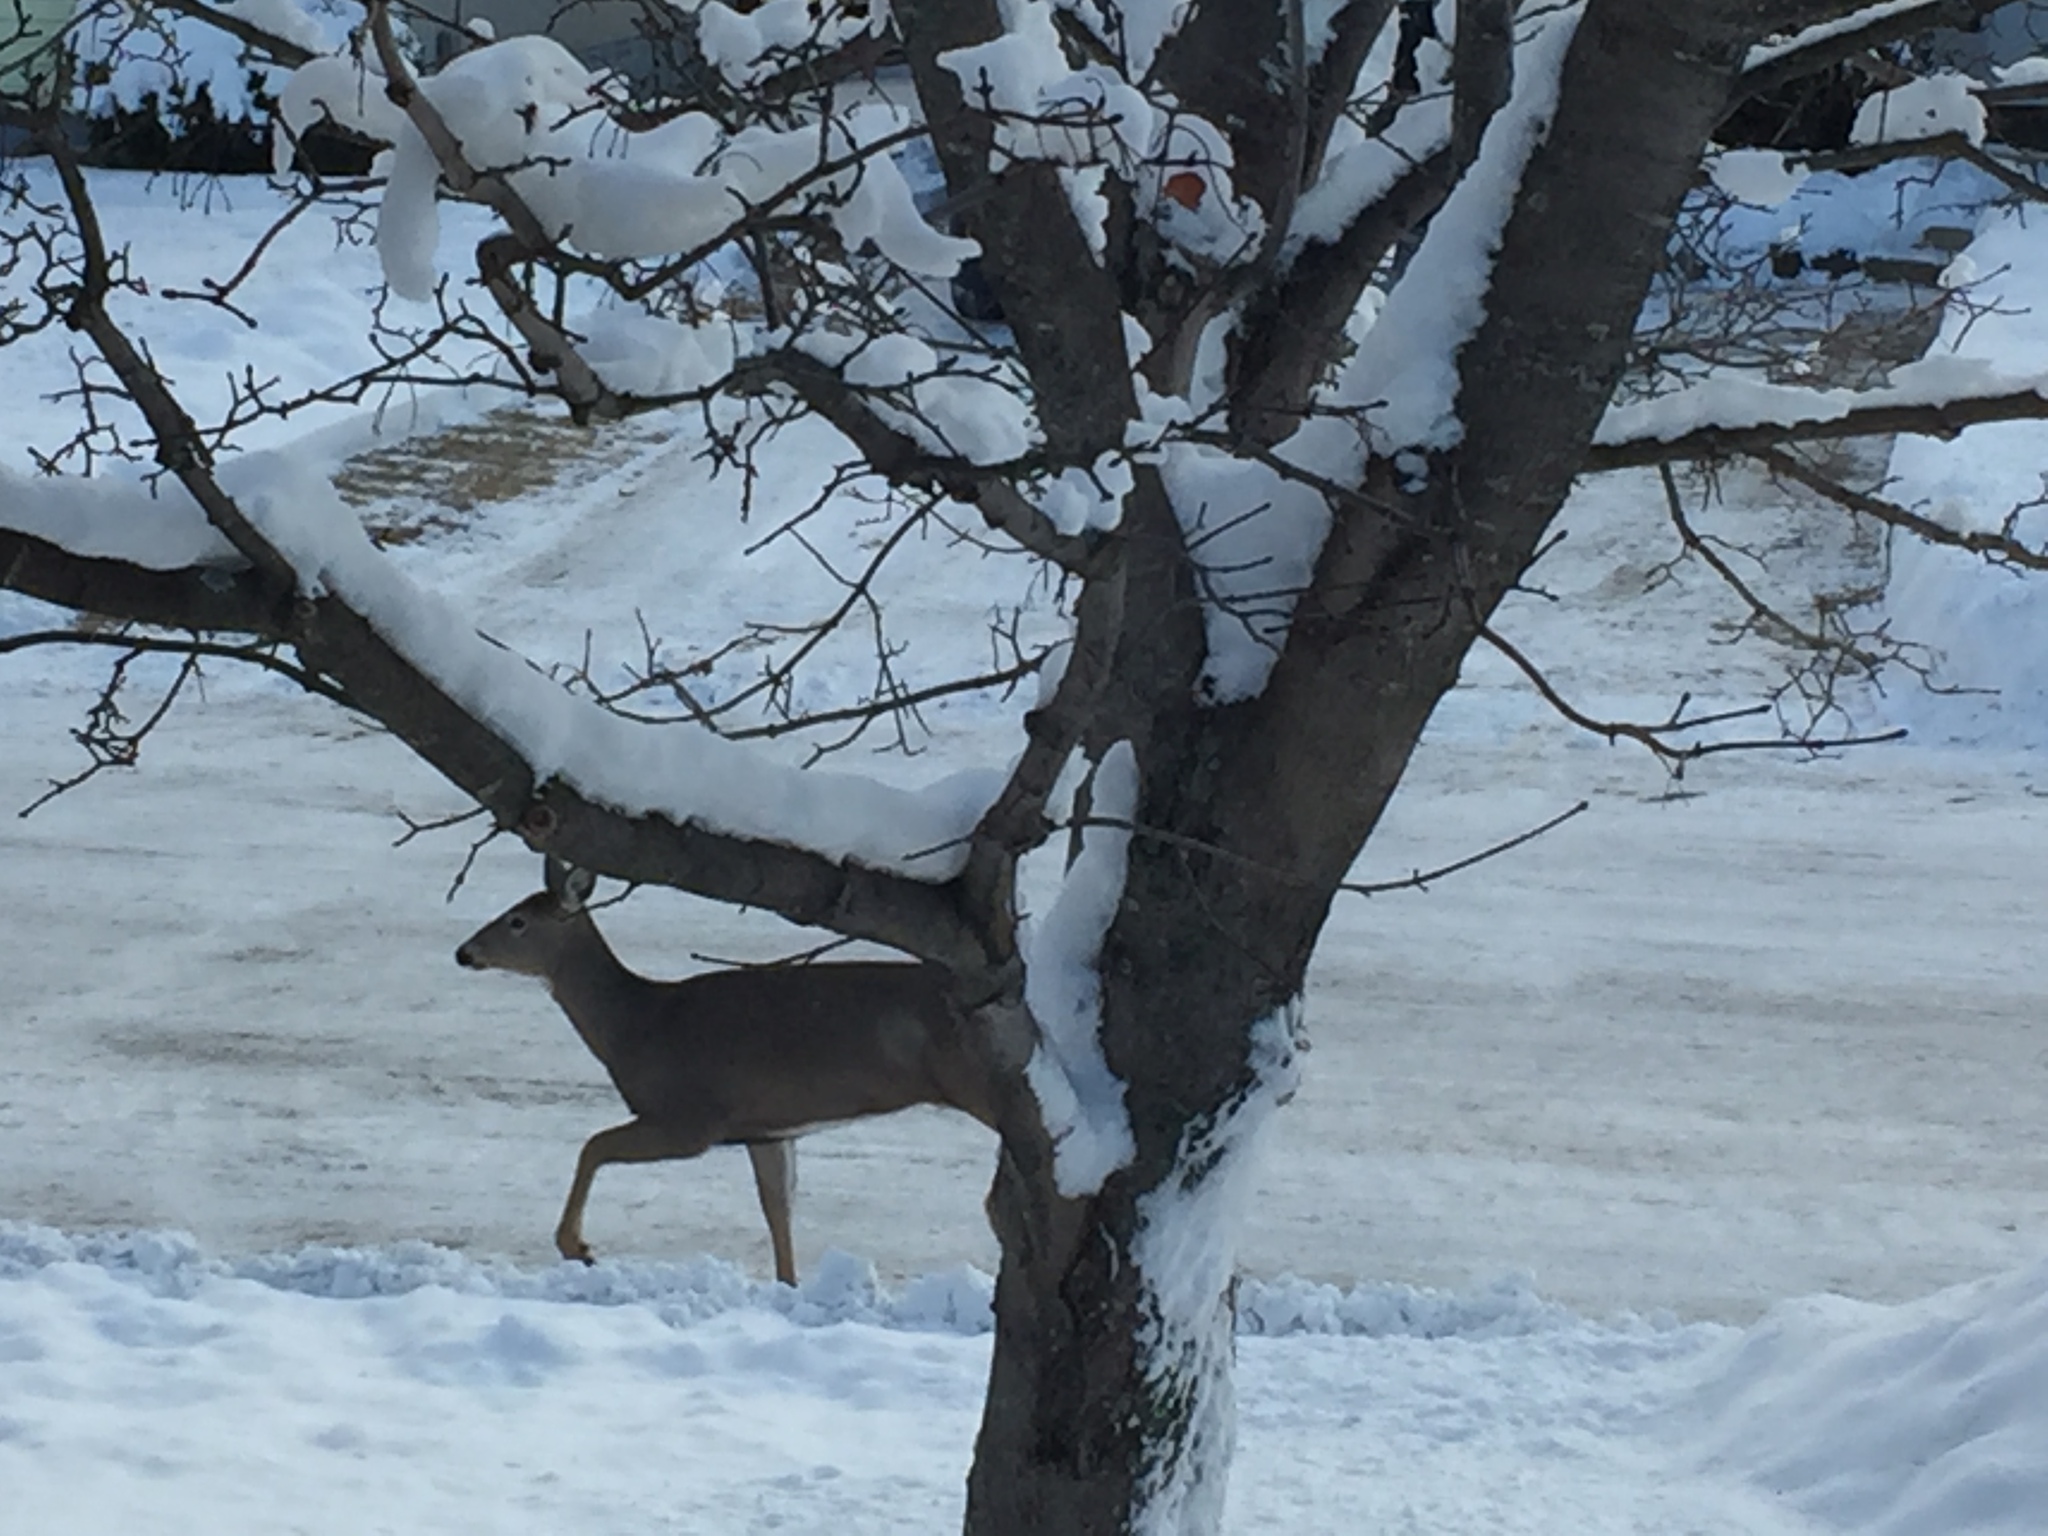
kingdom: Animalia
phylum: Chordata
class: Mammalia
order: Artiodactyla
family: Cervidae
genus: Odocoileus
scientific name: Odocoileus virginianus
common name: White-tailed deer
